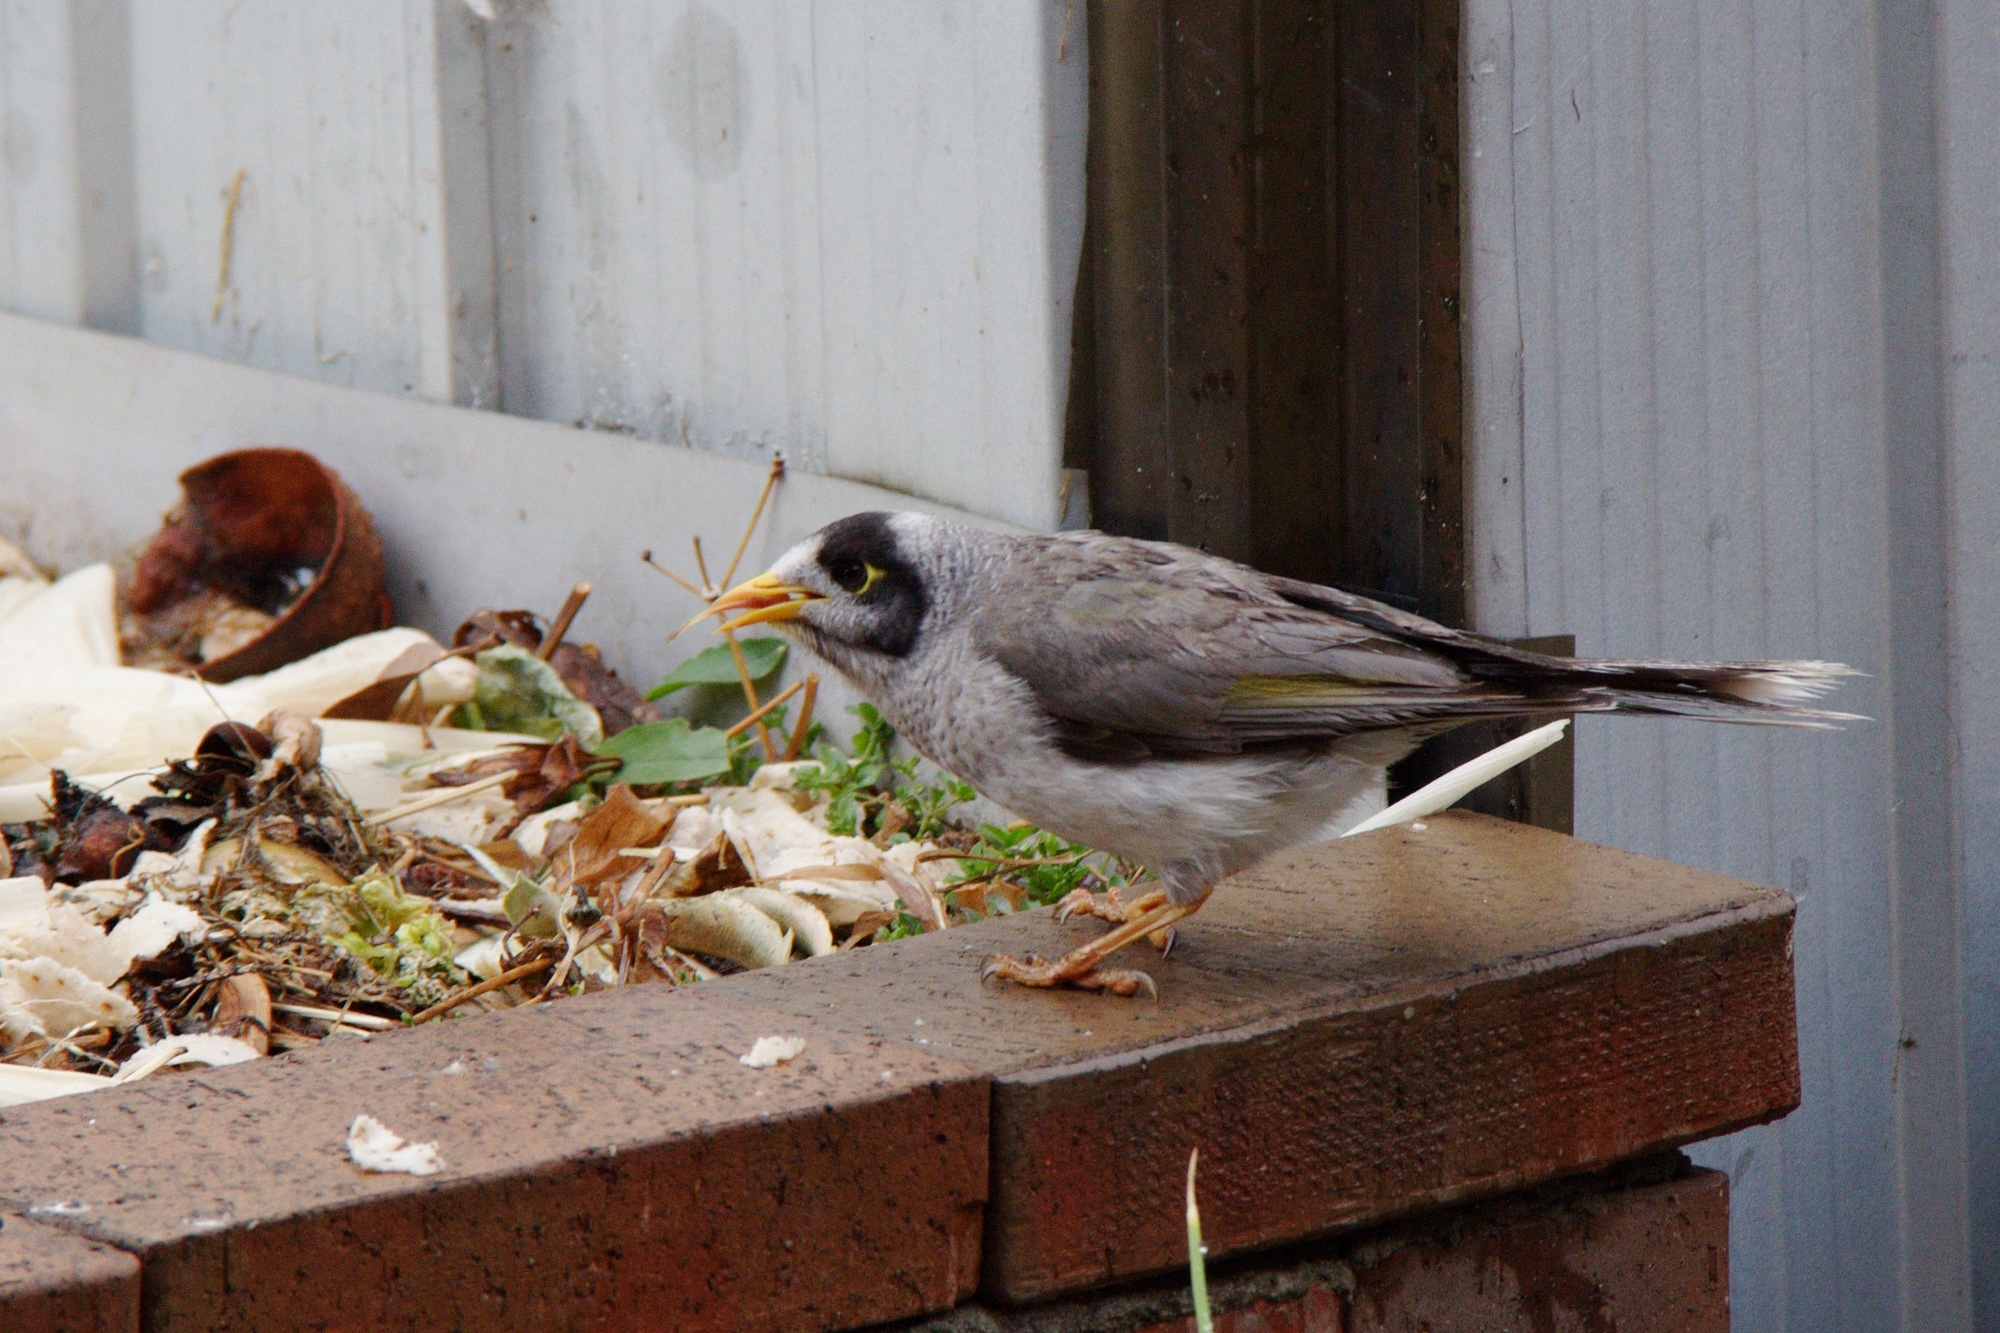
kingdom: Animalia
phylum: Chordata
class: Aves
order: Passeriformes
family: Meliphagidae
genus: Manorina
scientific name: Manorina melanocephala
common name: Noisy miner
